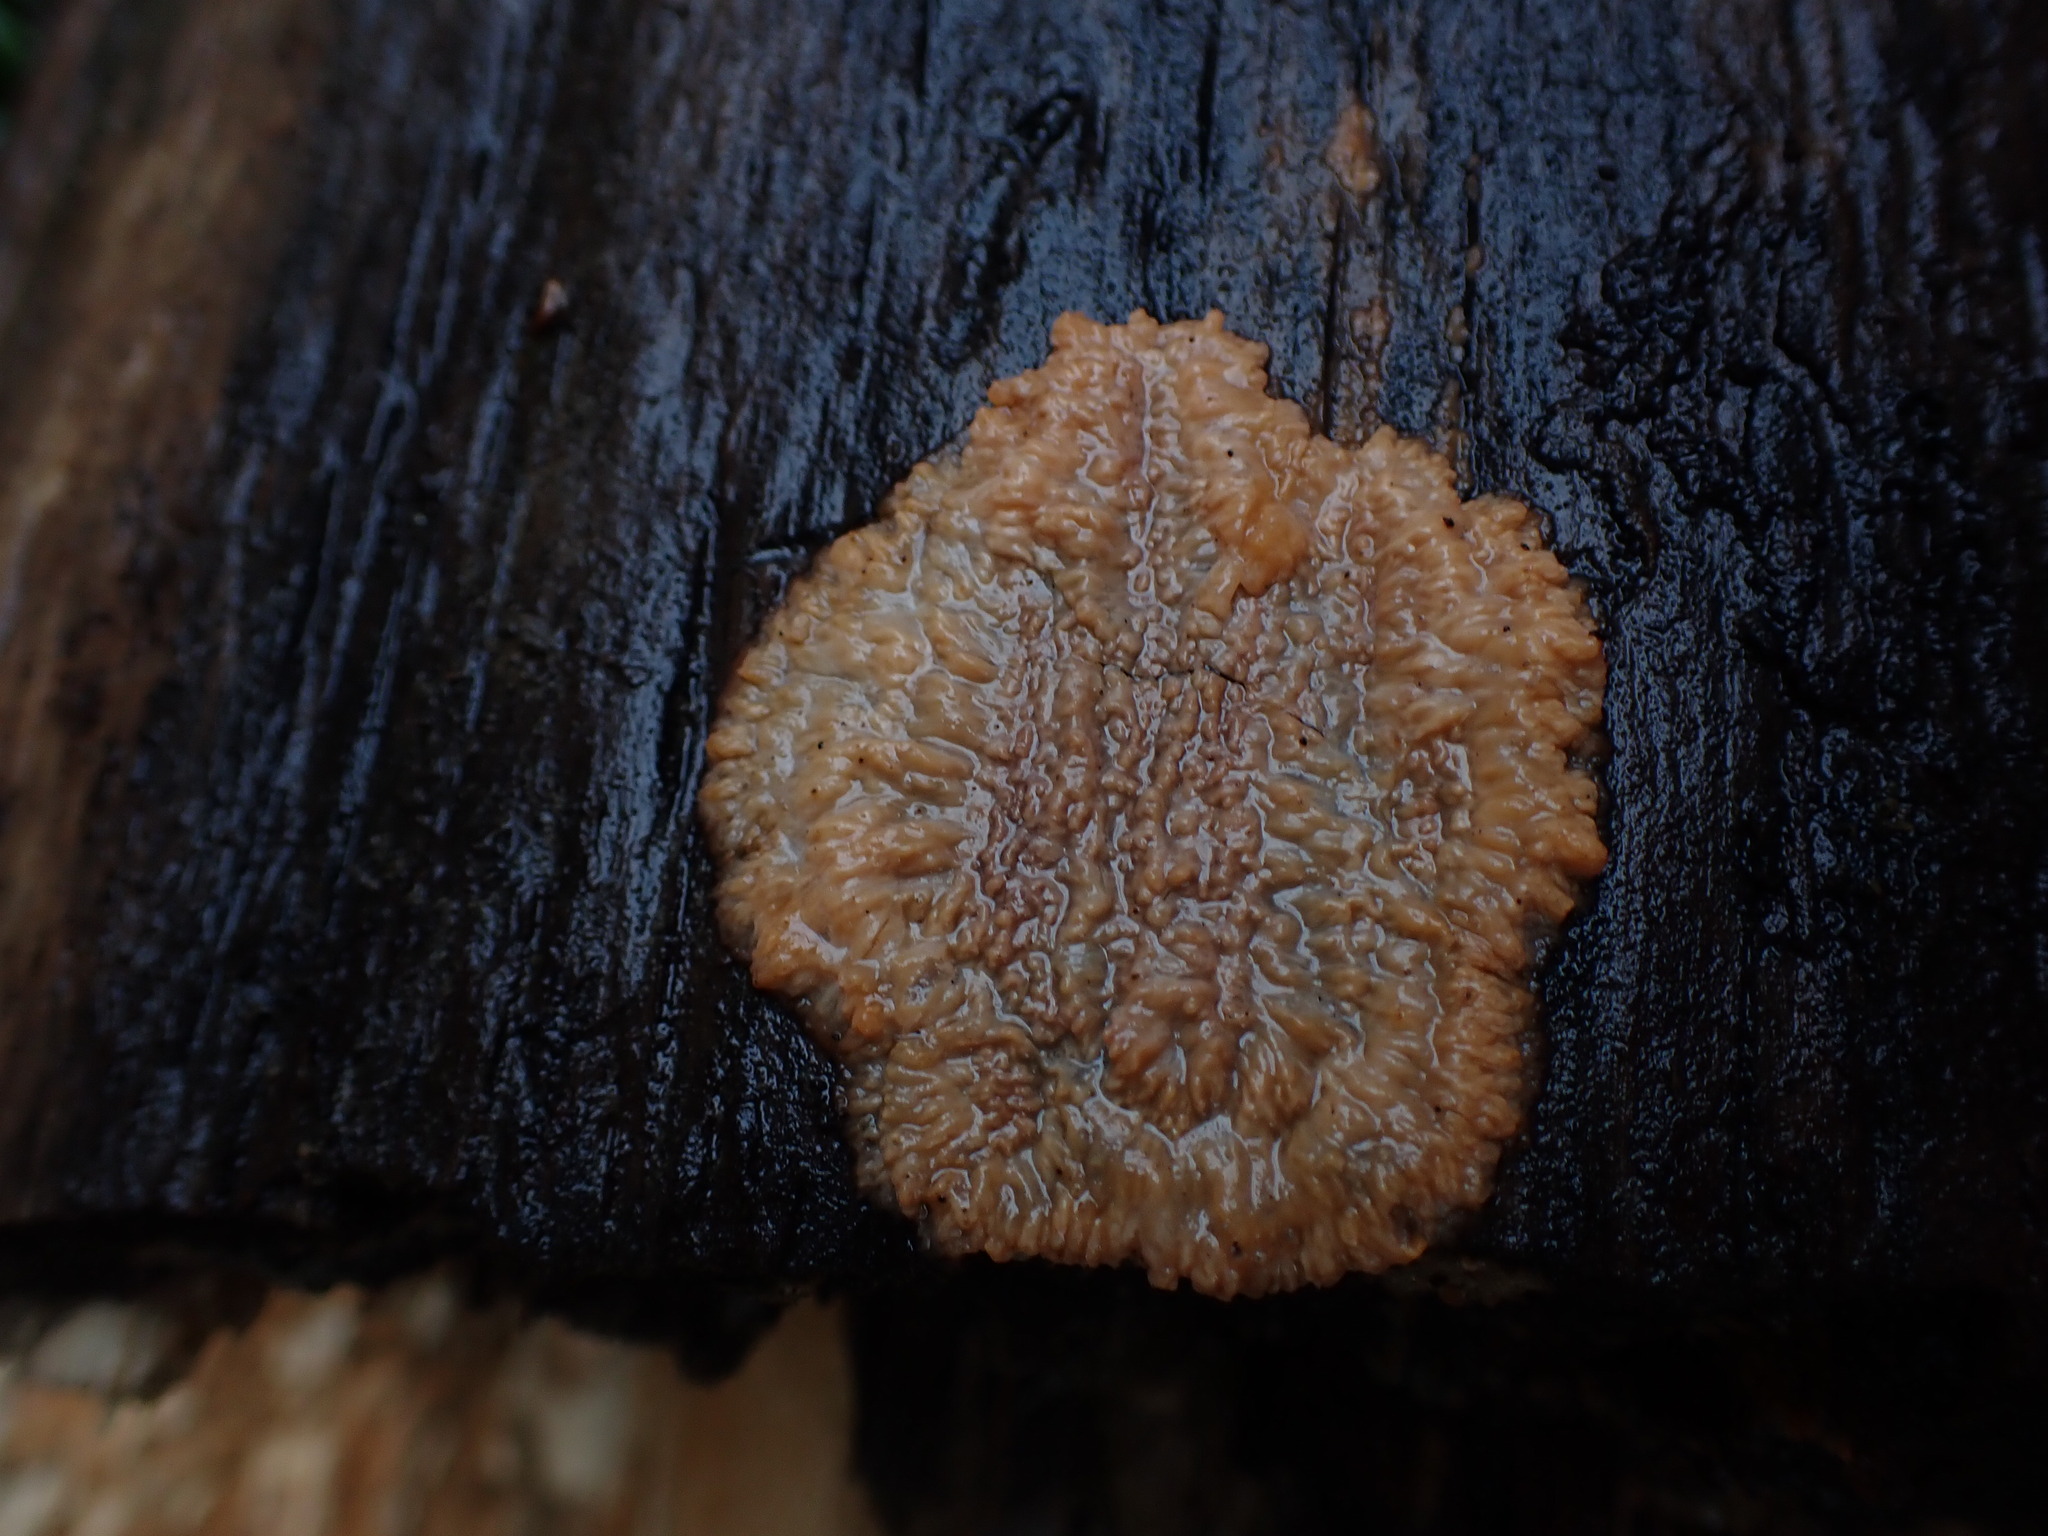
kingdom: Fungi
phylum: Basidiomycota
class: Agaricomycetes
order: Polyporales
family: Meruliaceae
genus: Phlebia
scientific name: Phlebia radiata
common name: Wrinkled crust
